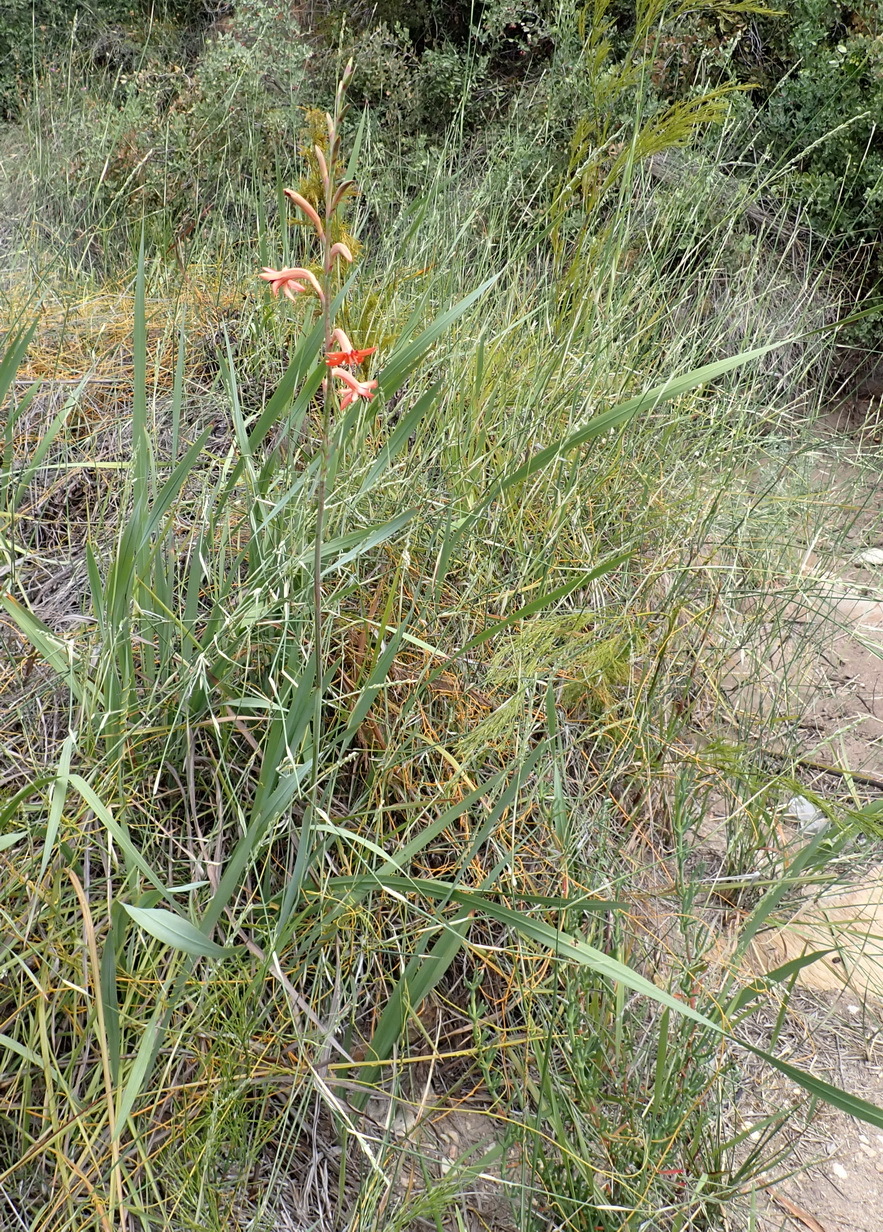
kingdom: Plantae
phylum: Tracheophyta
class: Liliopsida
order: Asparagales
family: Iridaceae
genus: Watsonia
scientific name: Watsonia angusta
